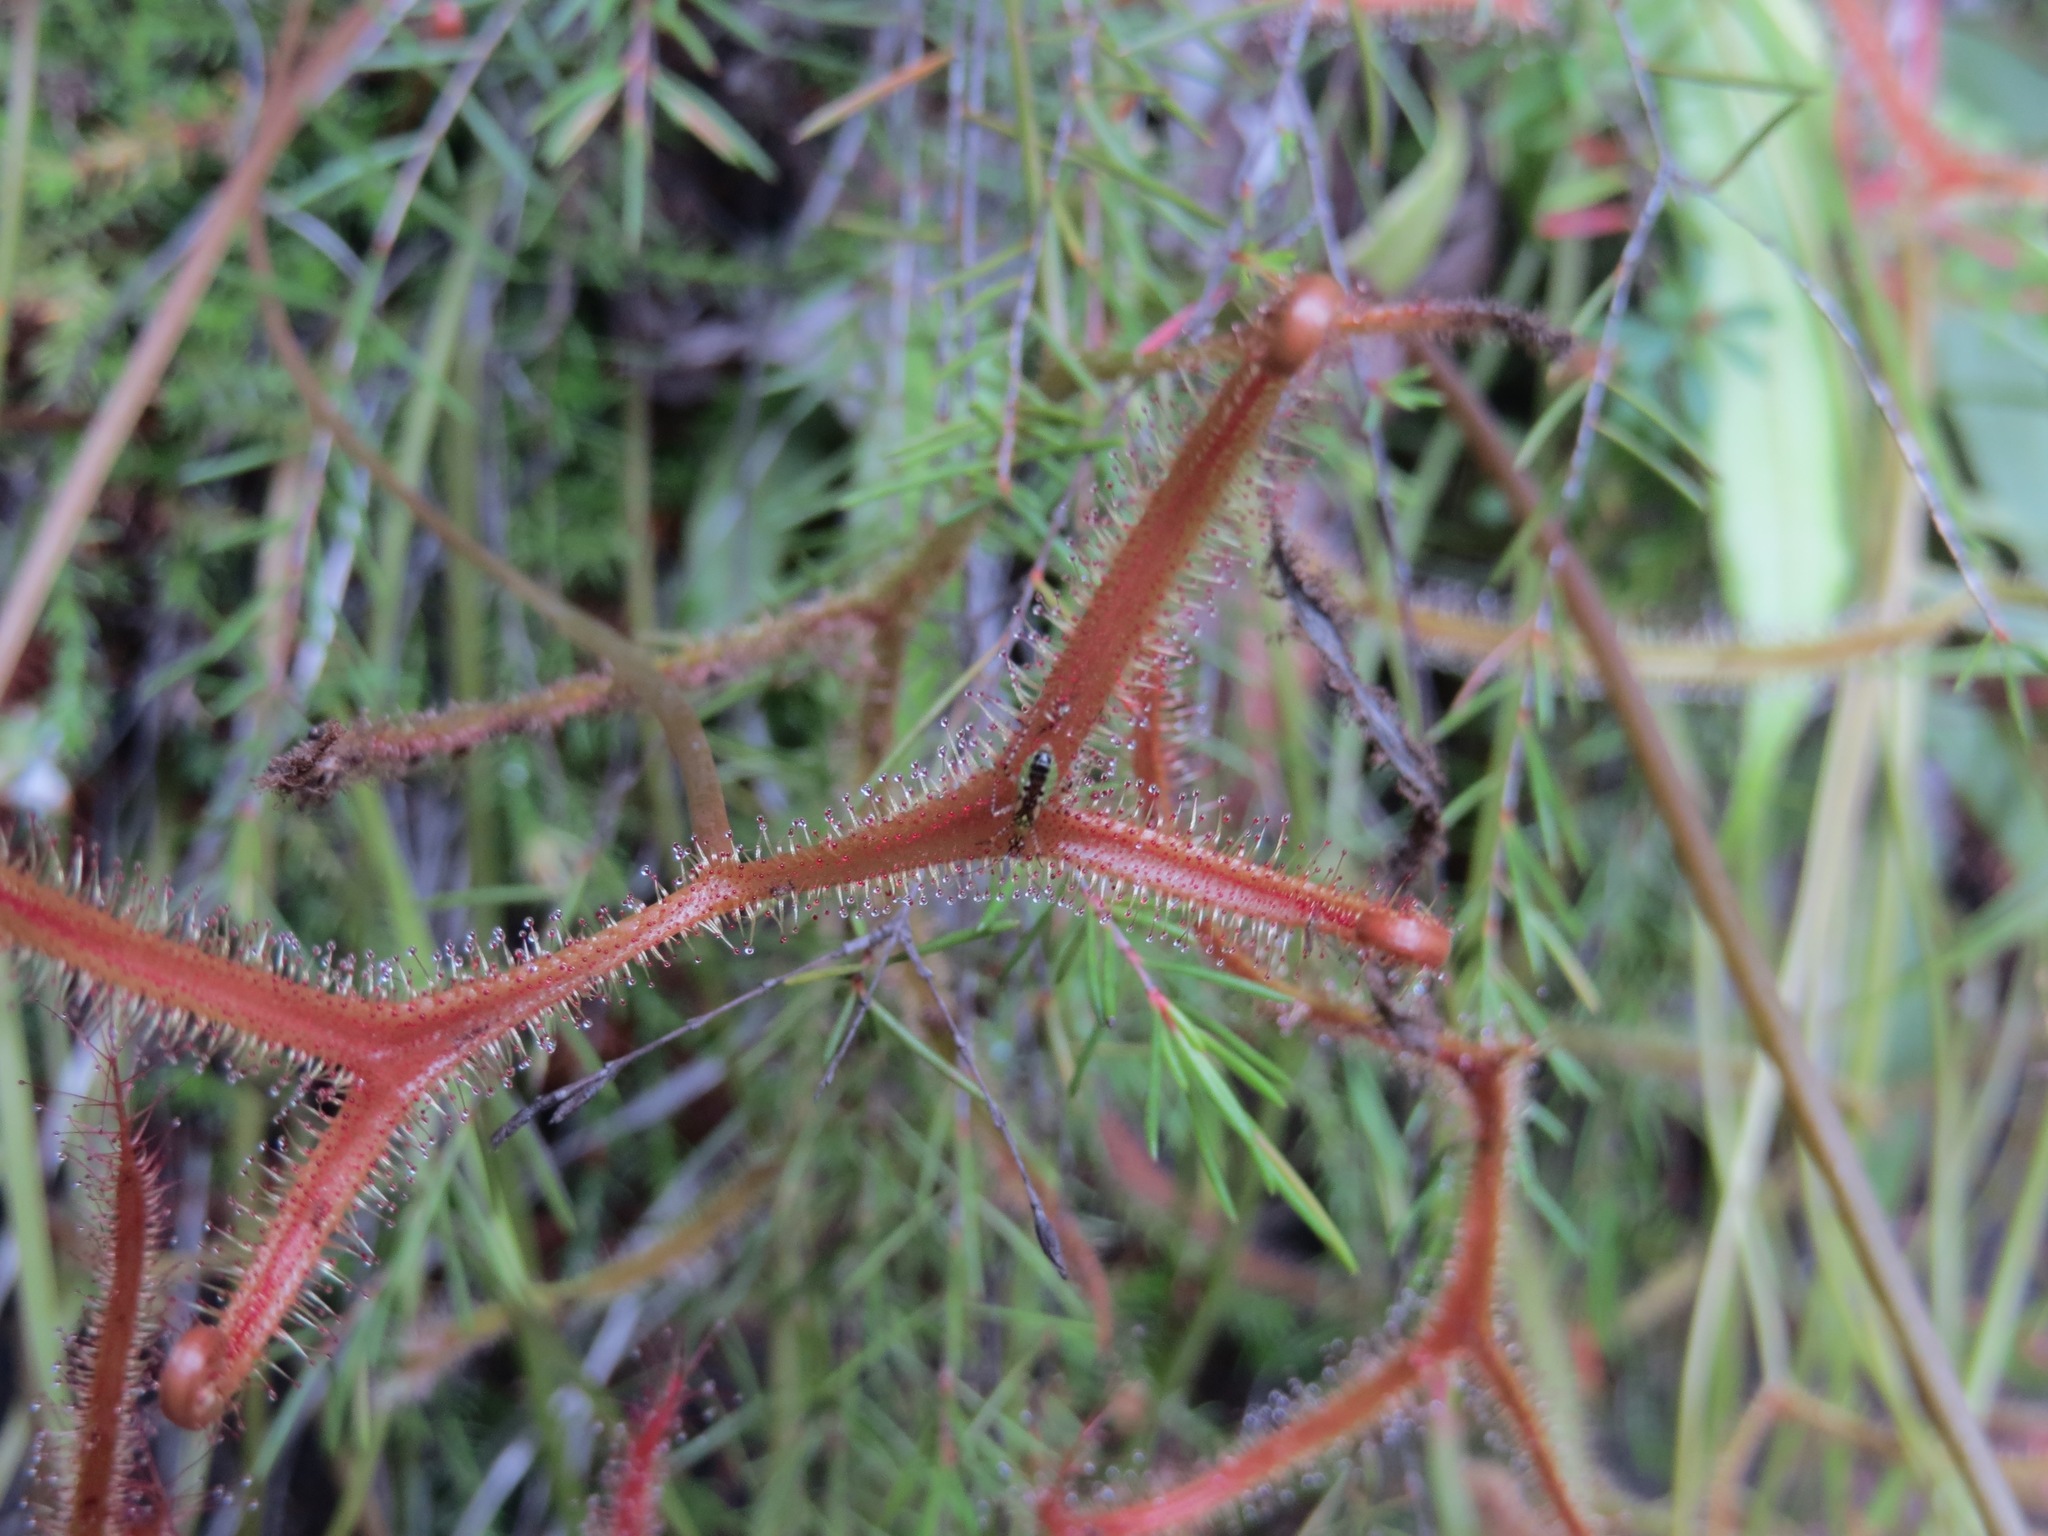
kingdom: Plantae
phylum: Tracheophyta
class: Magnoliopsida
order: Caryophyllales
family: Droseraceae
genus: Drosera
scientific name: Drosera binata
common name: Forked sundew
